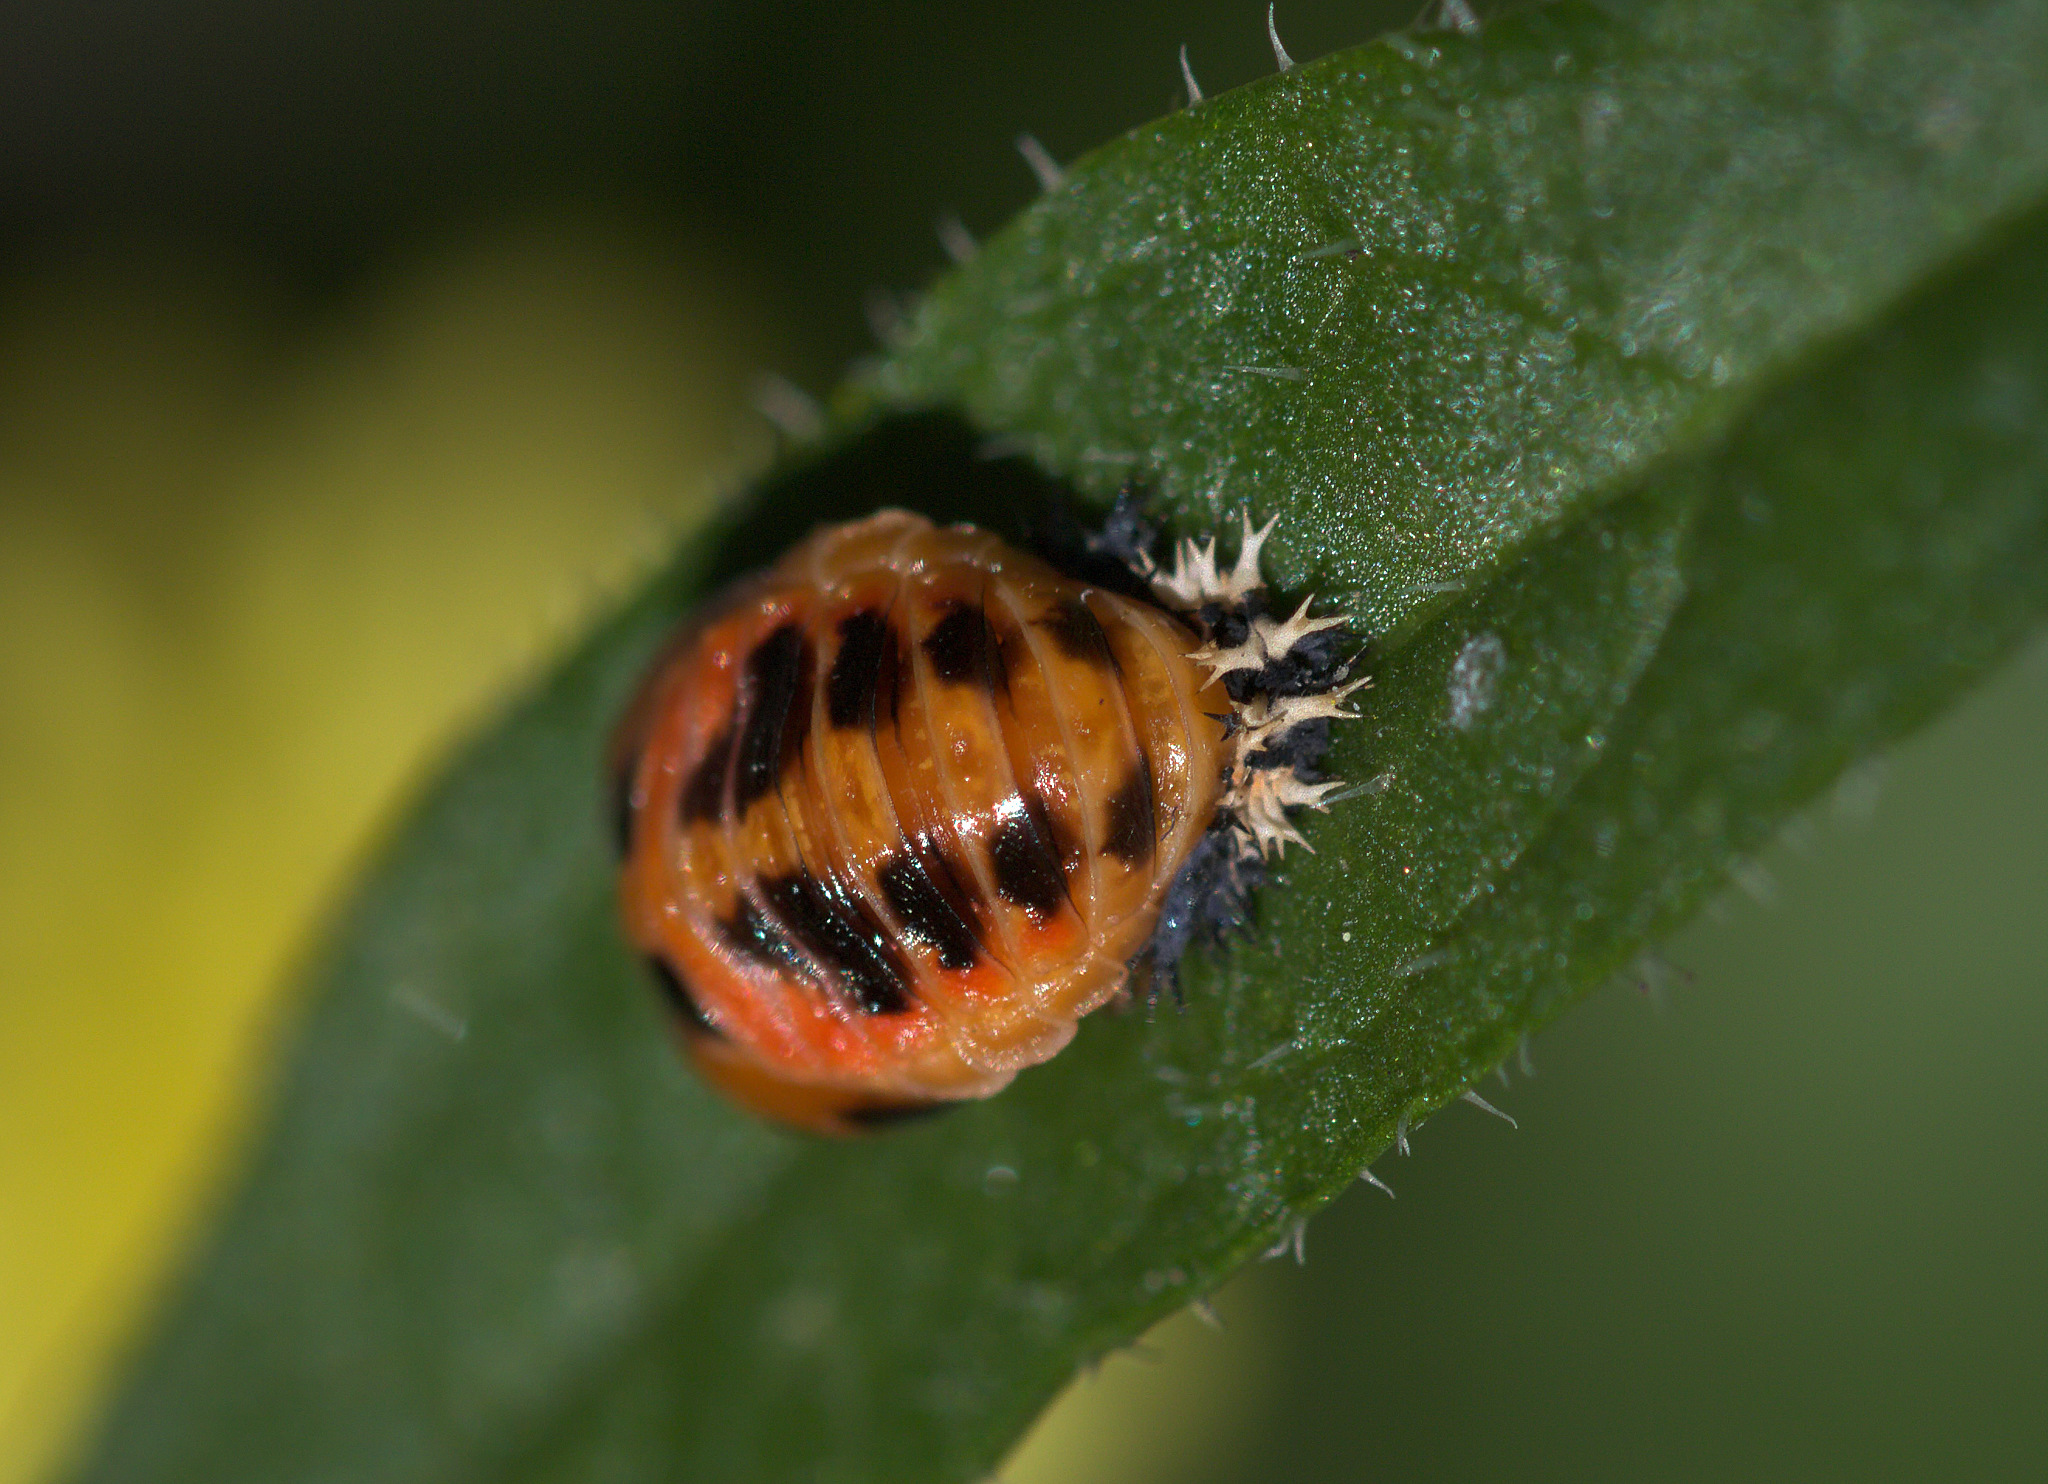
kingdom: Animalia
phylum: Arthropoda
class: Insecta
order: Coleoptera
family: Coccinellidae
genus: Harmonia
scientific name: Harmonia axyridis
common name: Harlequin ladybird
